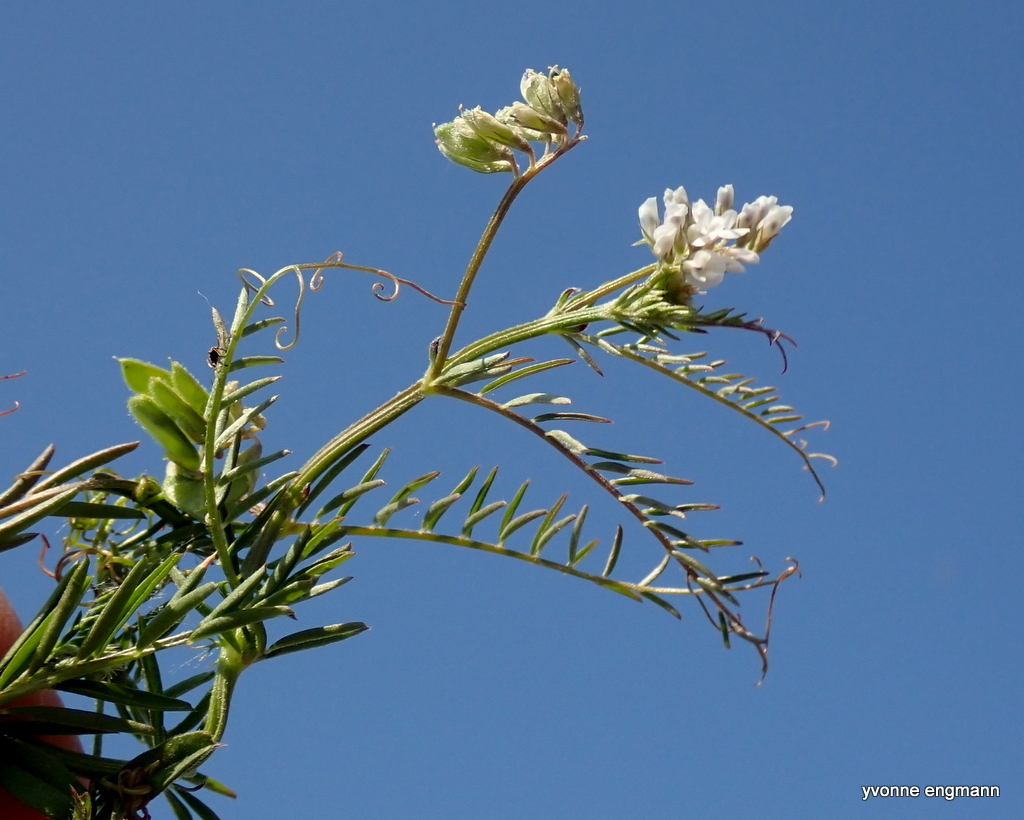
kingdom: Plantae
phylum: Tracheophyta
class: Magnoliopsida
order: Fabales
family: Fabaceae
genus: Vicia
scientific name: Vicia hirsuta
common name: Tiny vetch
